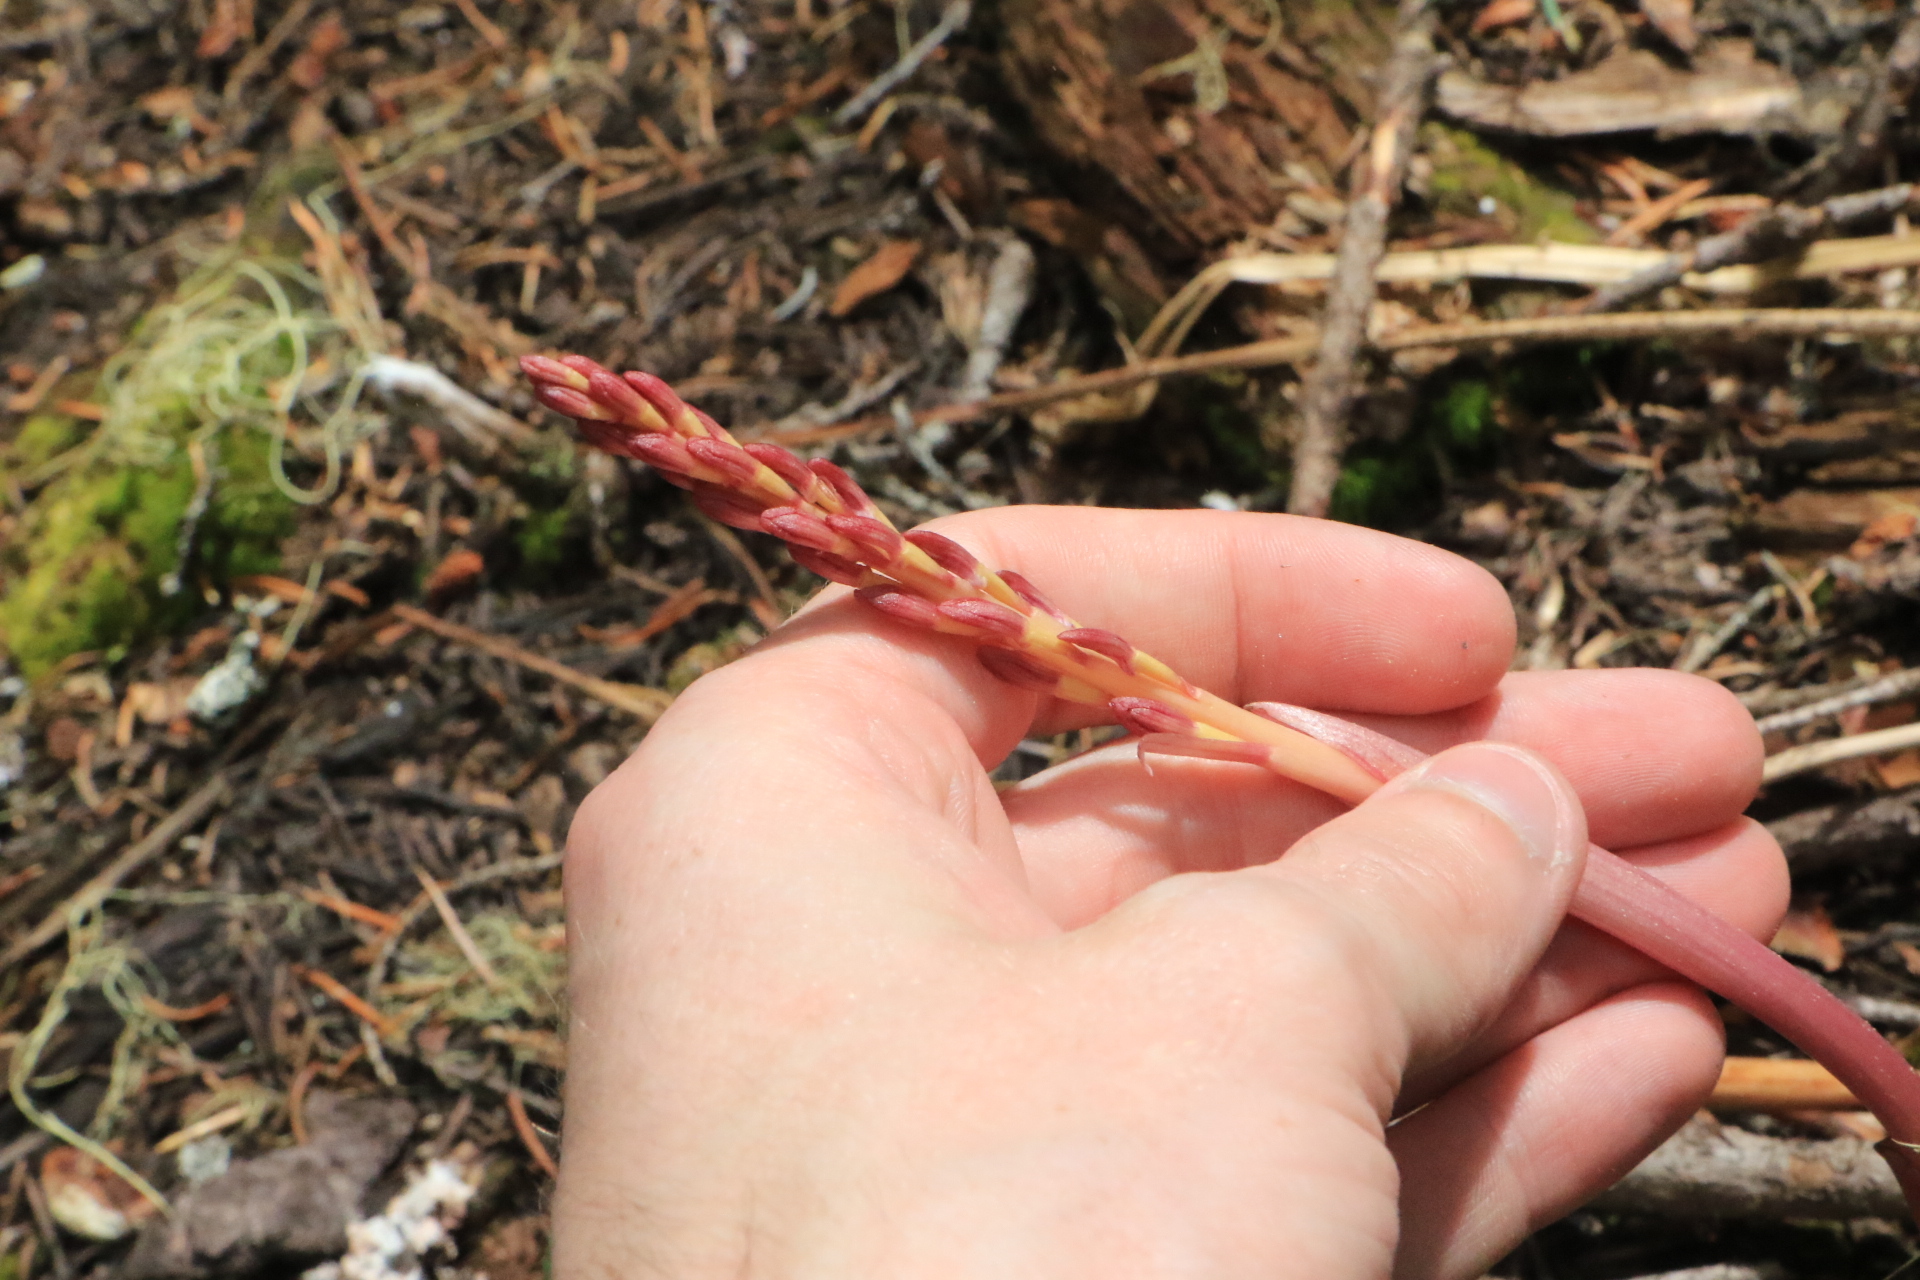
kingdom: Plantae
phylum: Tracheophyta
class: Liliopsida
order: Asparagales
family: Orchidaceae
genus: Corallorhiza
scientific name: Corallorhiza
